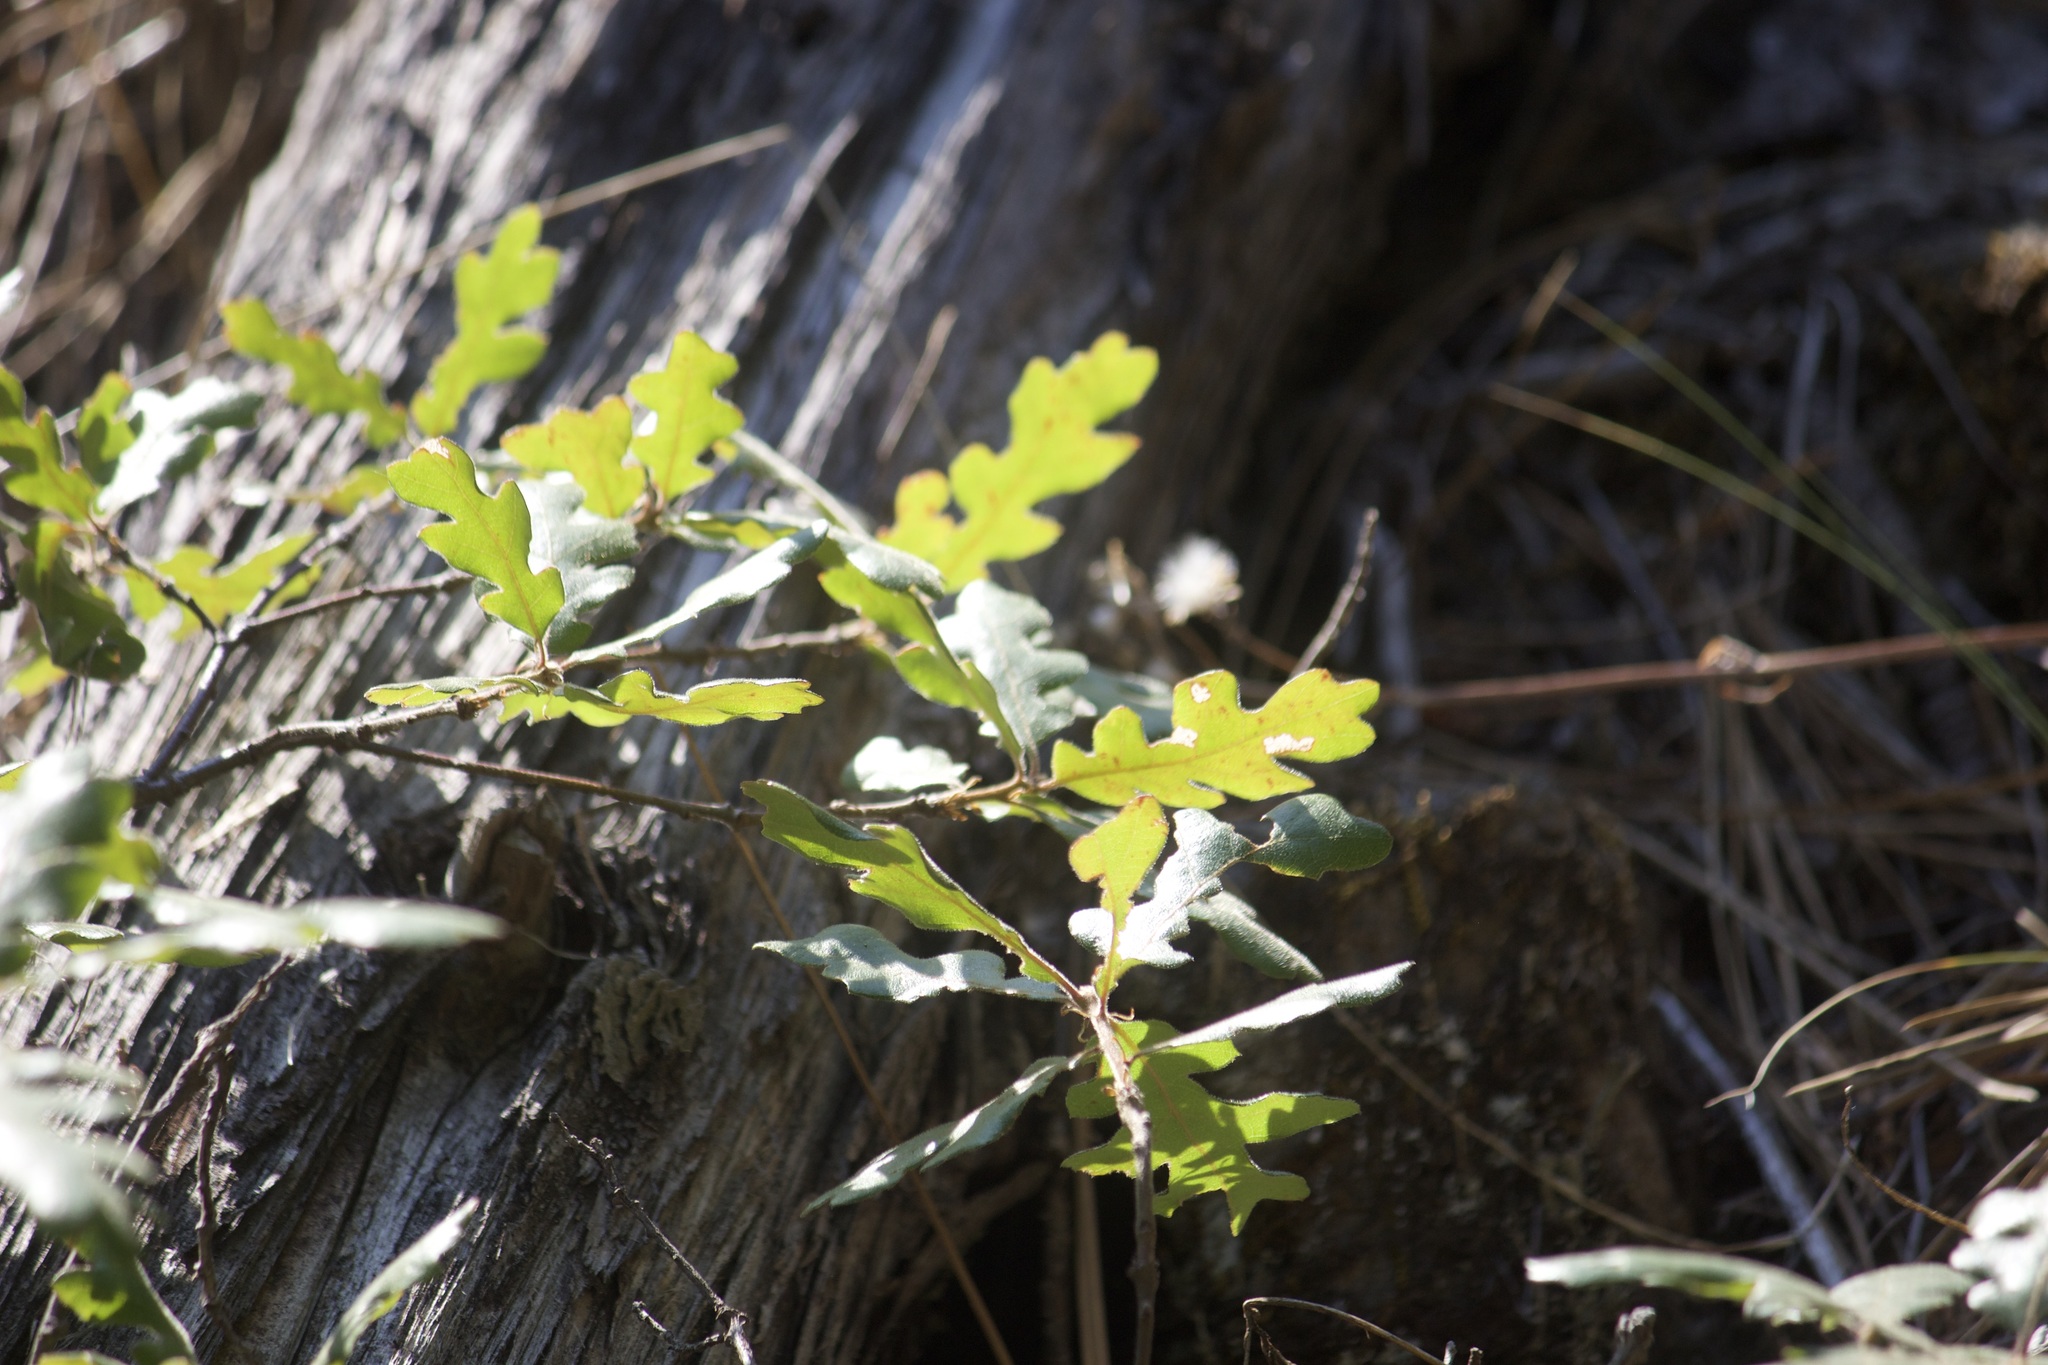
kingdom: Plantae
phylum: Tracheophyta
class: Magnoliopsida
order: Fagales
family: Fagaceae
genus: Quercus
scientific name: Quercus garryana
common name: Garry oak
